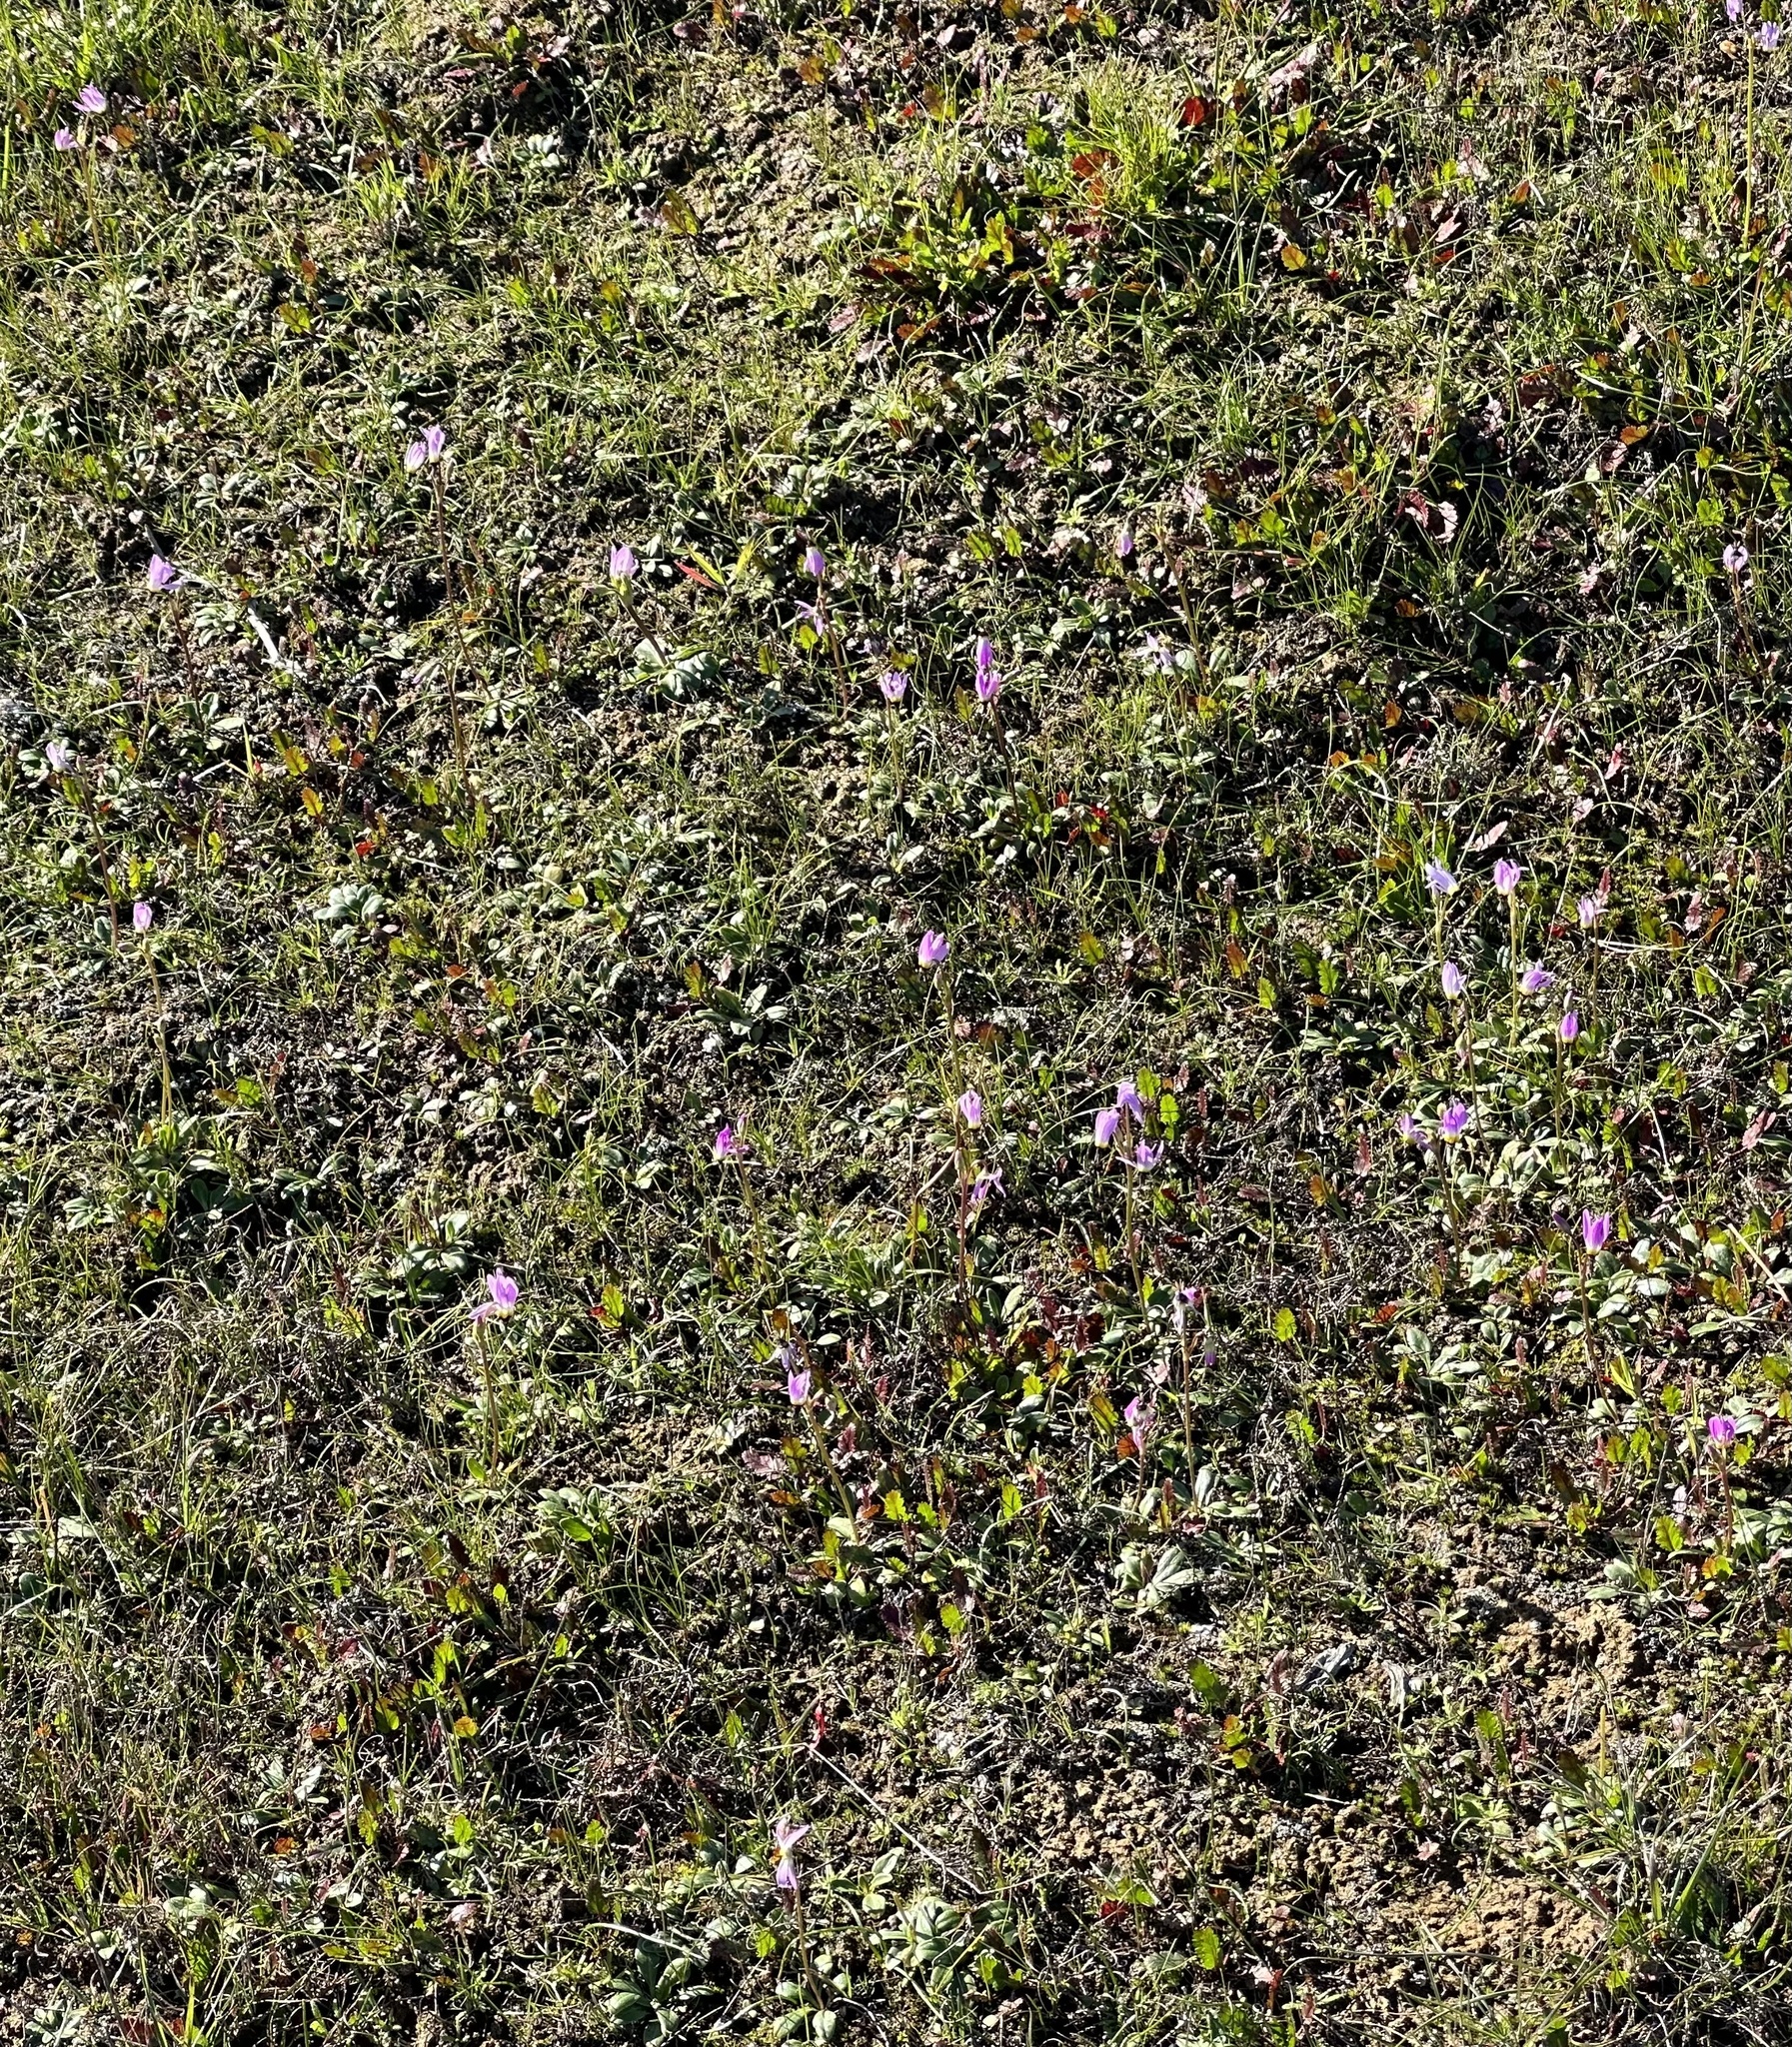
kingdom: Plantae
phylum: Tracheophyta
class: Magnoliopsida
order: Ericales
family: Primulaceae
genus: Dodecatheon
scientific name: Dodecatheon clevelandii
